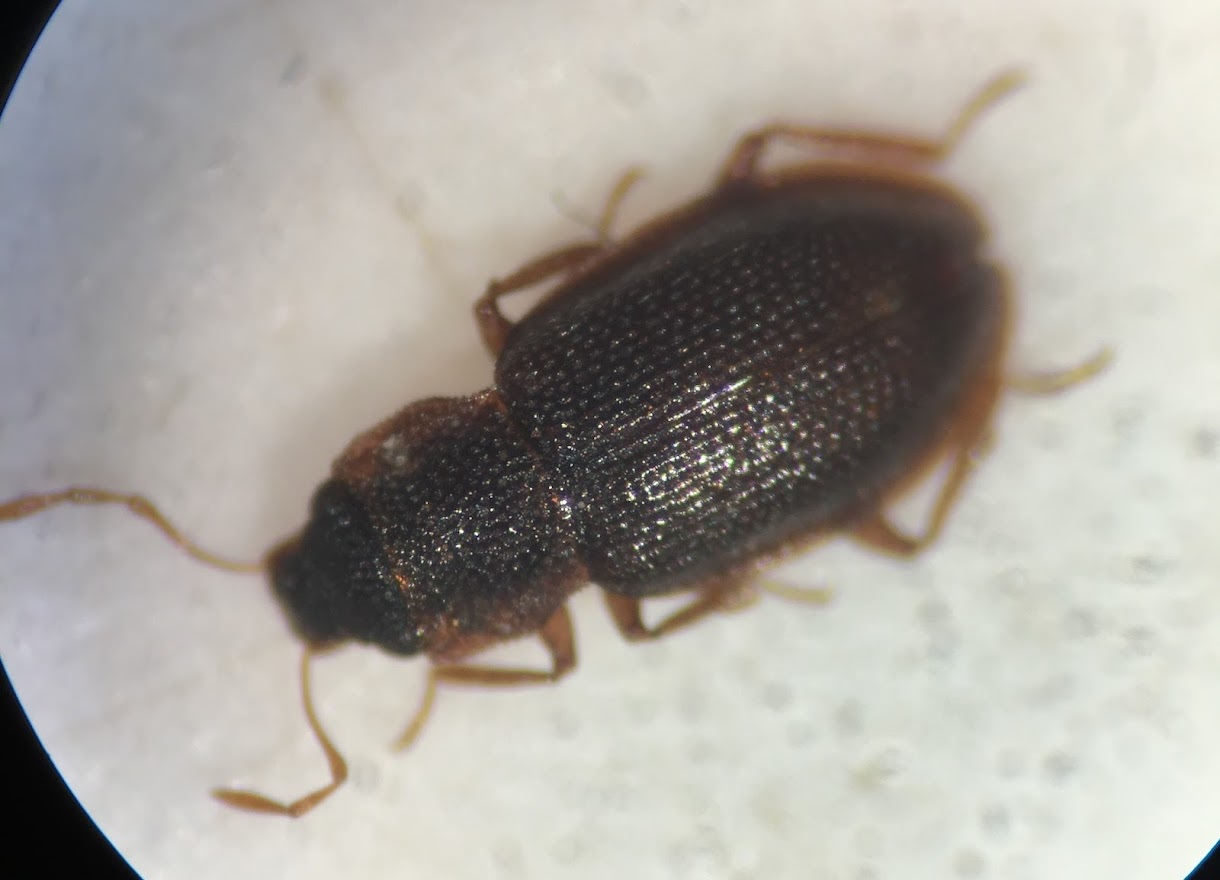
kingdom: Animalia
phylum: Arthropoda
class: Insecta
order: Coleoptera
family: Hydraenidae
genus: Hydraena
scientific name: Hydraena pensylvanica
